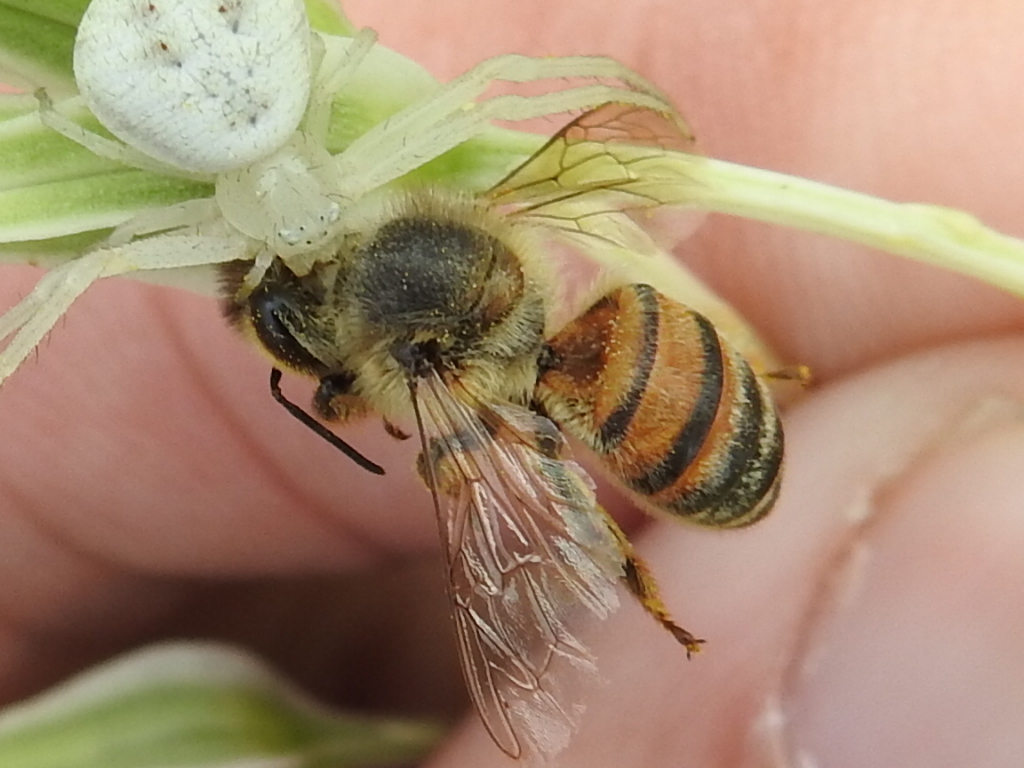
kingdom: Animalia
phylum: Arthropoda
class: Insecta
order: Hymenoptera
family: Apidae
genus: Apis
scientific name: Apis mellifera
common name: Honey bee
